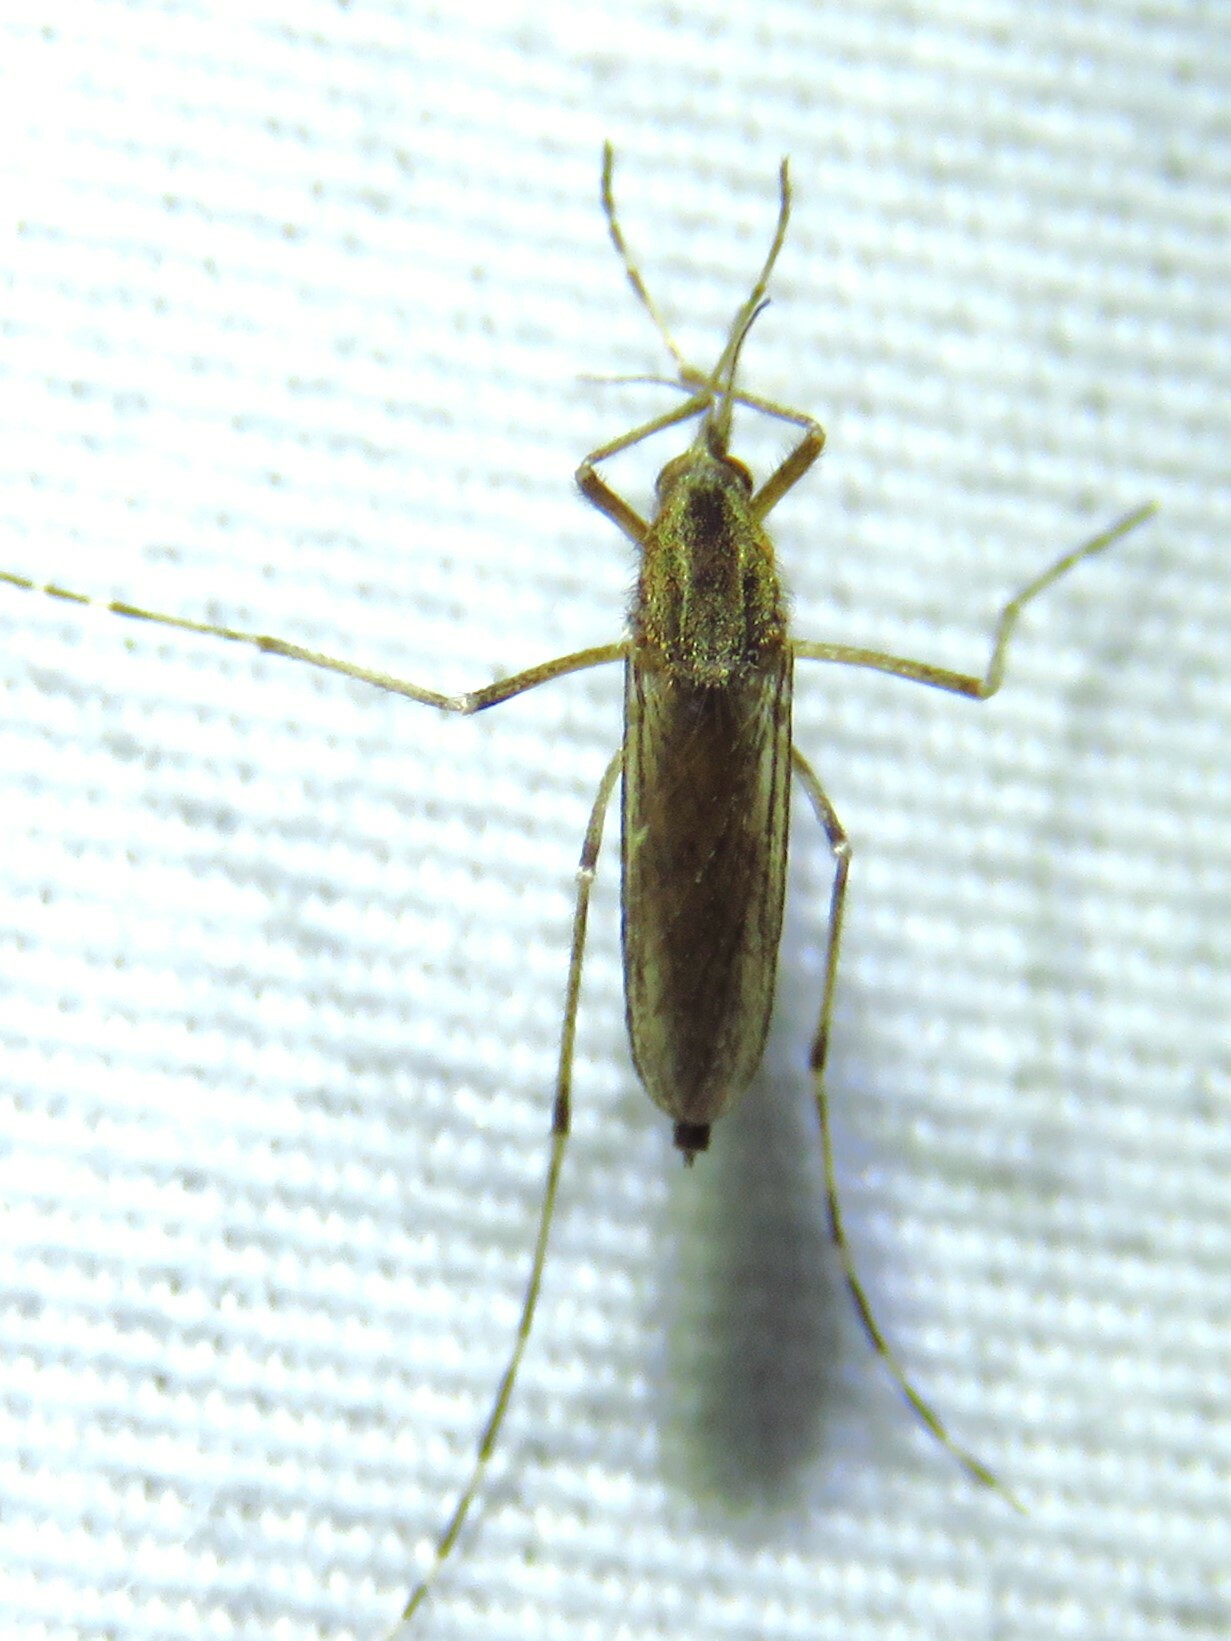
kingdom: Animalia
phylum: Arthropoda
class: Insecta
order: Diptera
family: Culicidae
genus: Aedes
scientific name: Aedes nigromaculis
